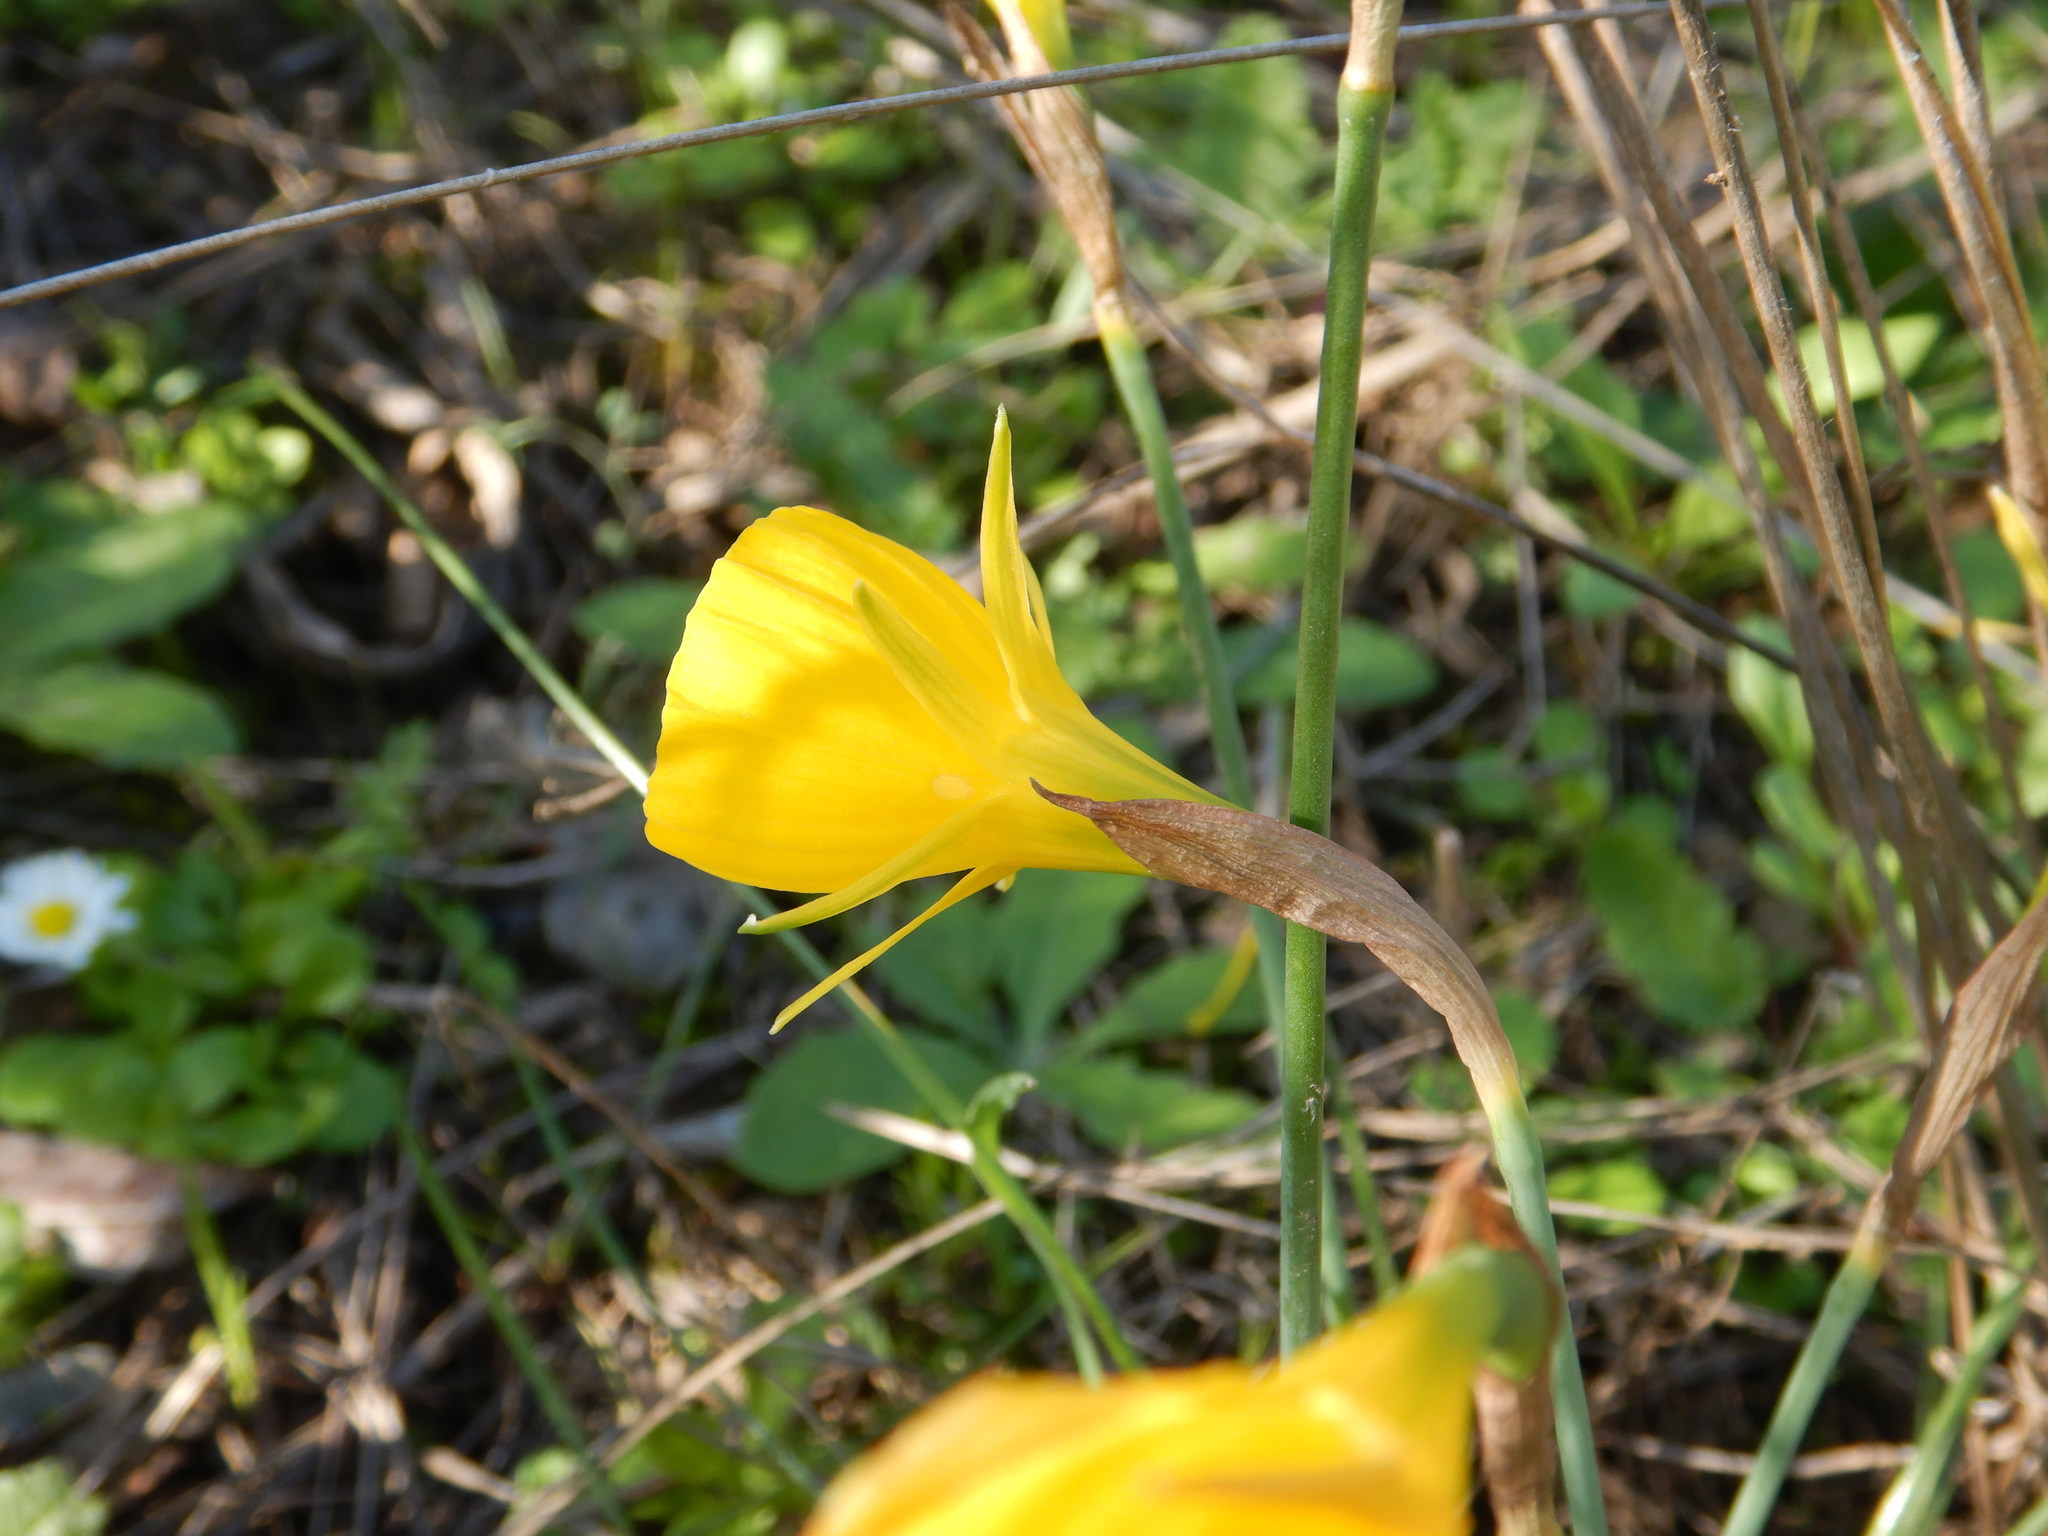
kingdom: Plantae
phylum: Tracheophyta
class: Liliopsida
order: Asparagales
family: Amaryllidaceae
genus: Narcissus
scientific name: Narcissus bulbocodium
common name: Hoop-petticoat daffodil
